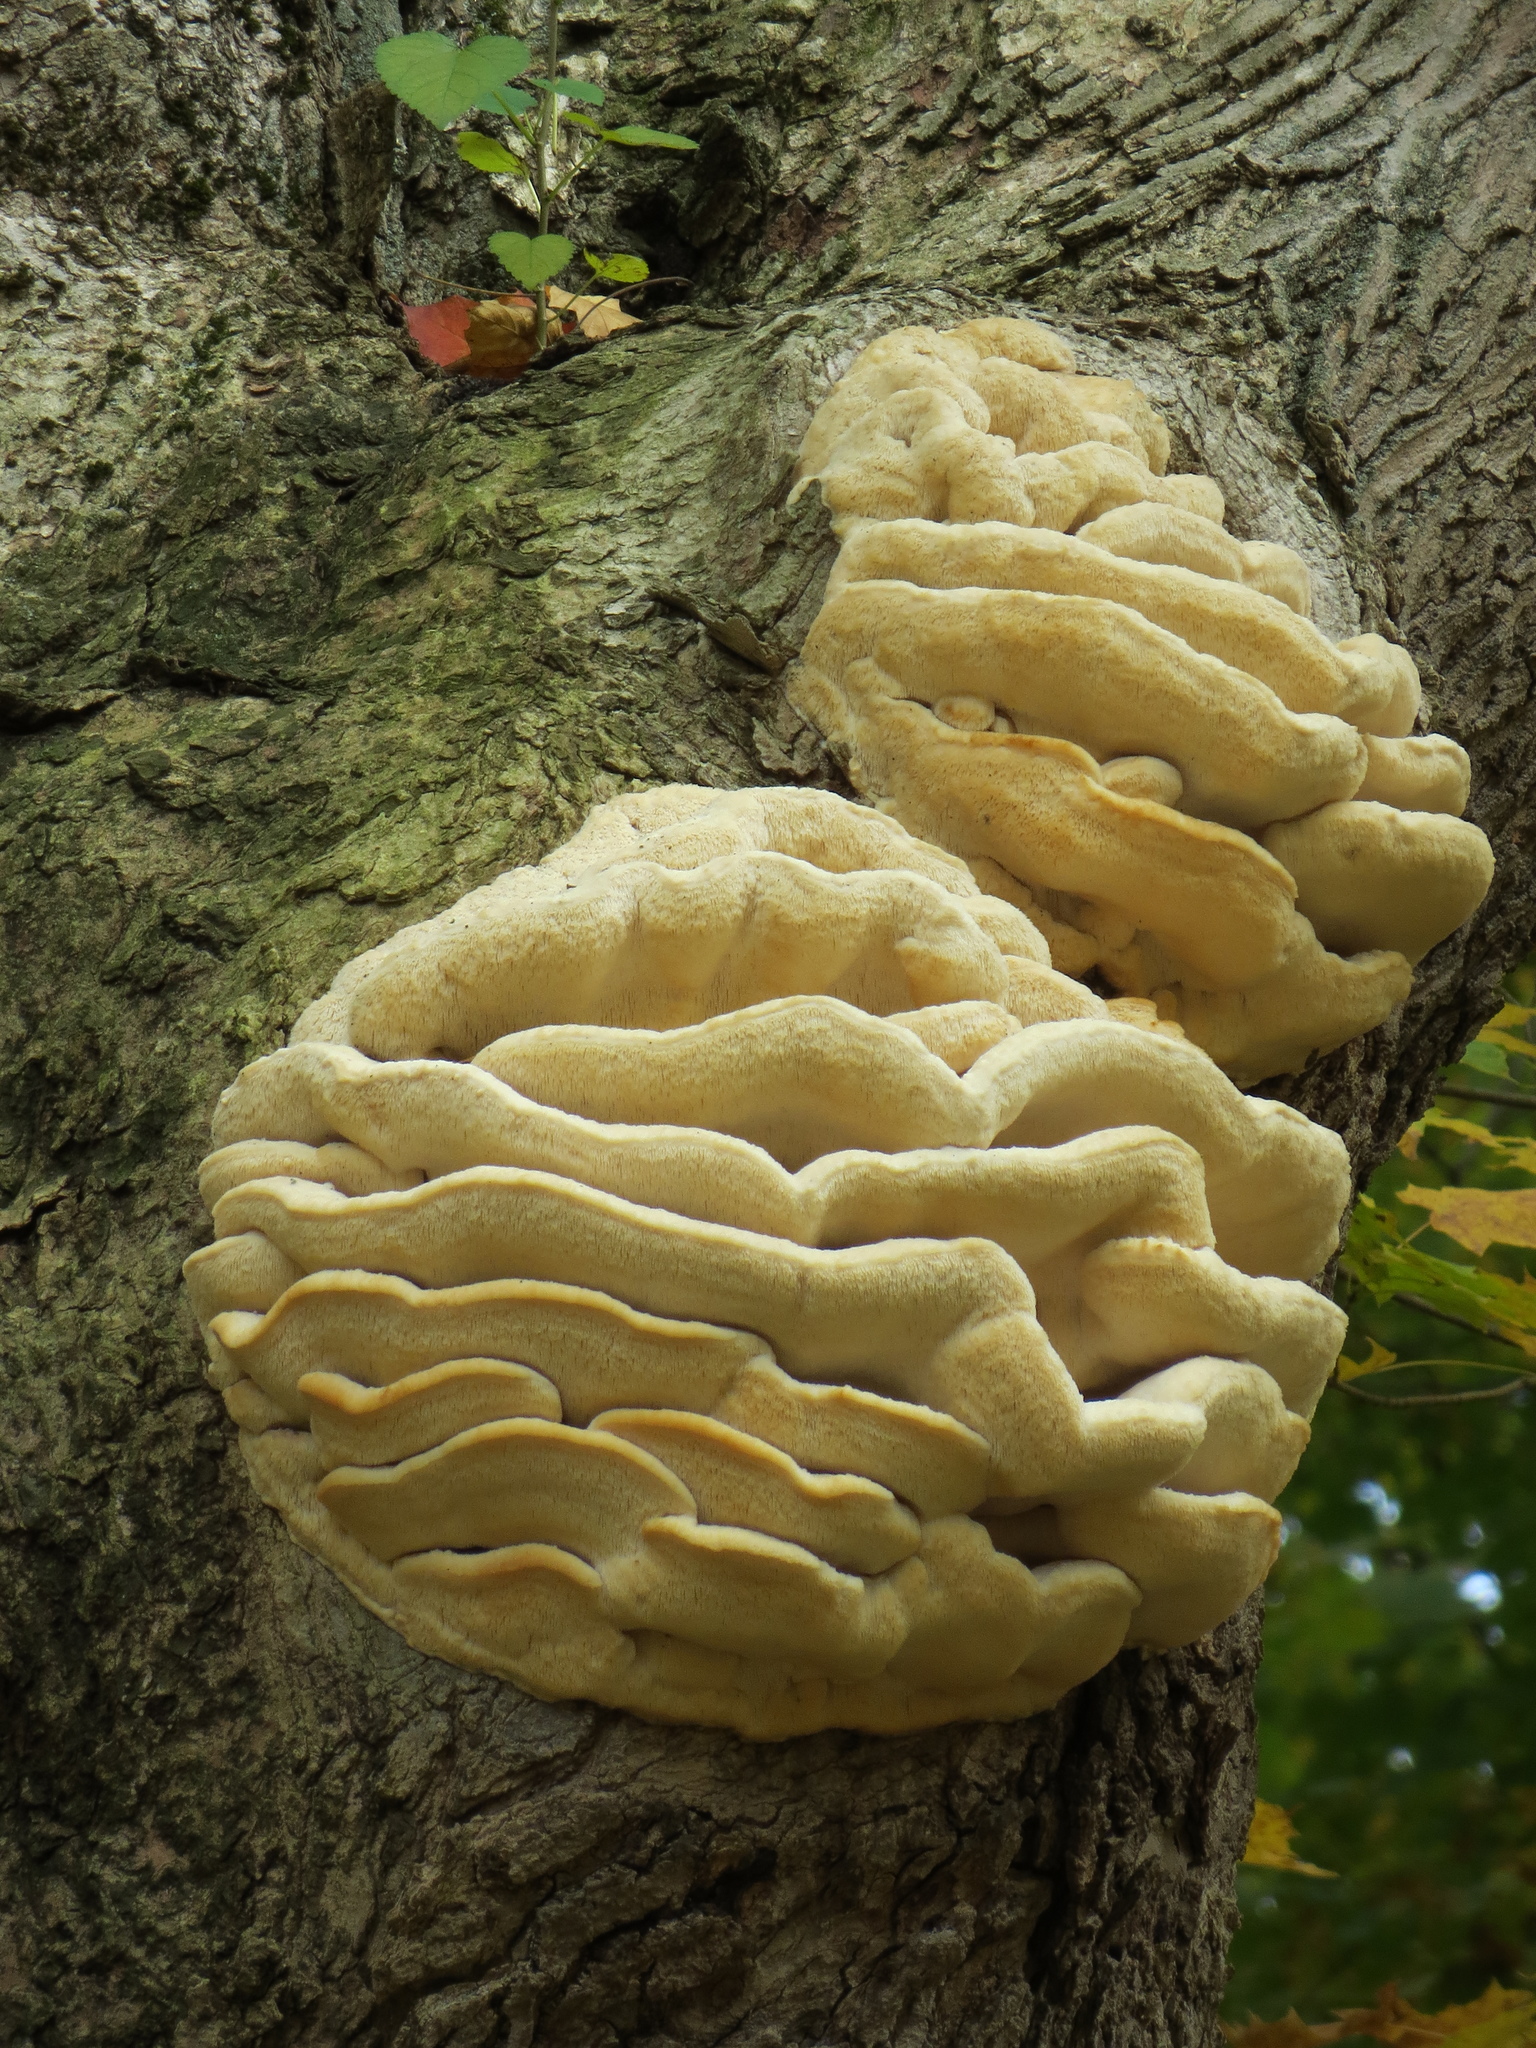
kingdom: Fungi
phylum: Basidiomycota
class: Agaricomycetes
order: Polyporales
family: Meruliaceae
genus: Climacodon
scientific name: Climacodon septentrionalis
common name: Northern tooth
